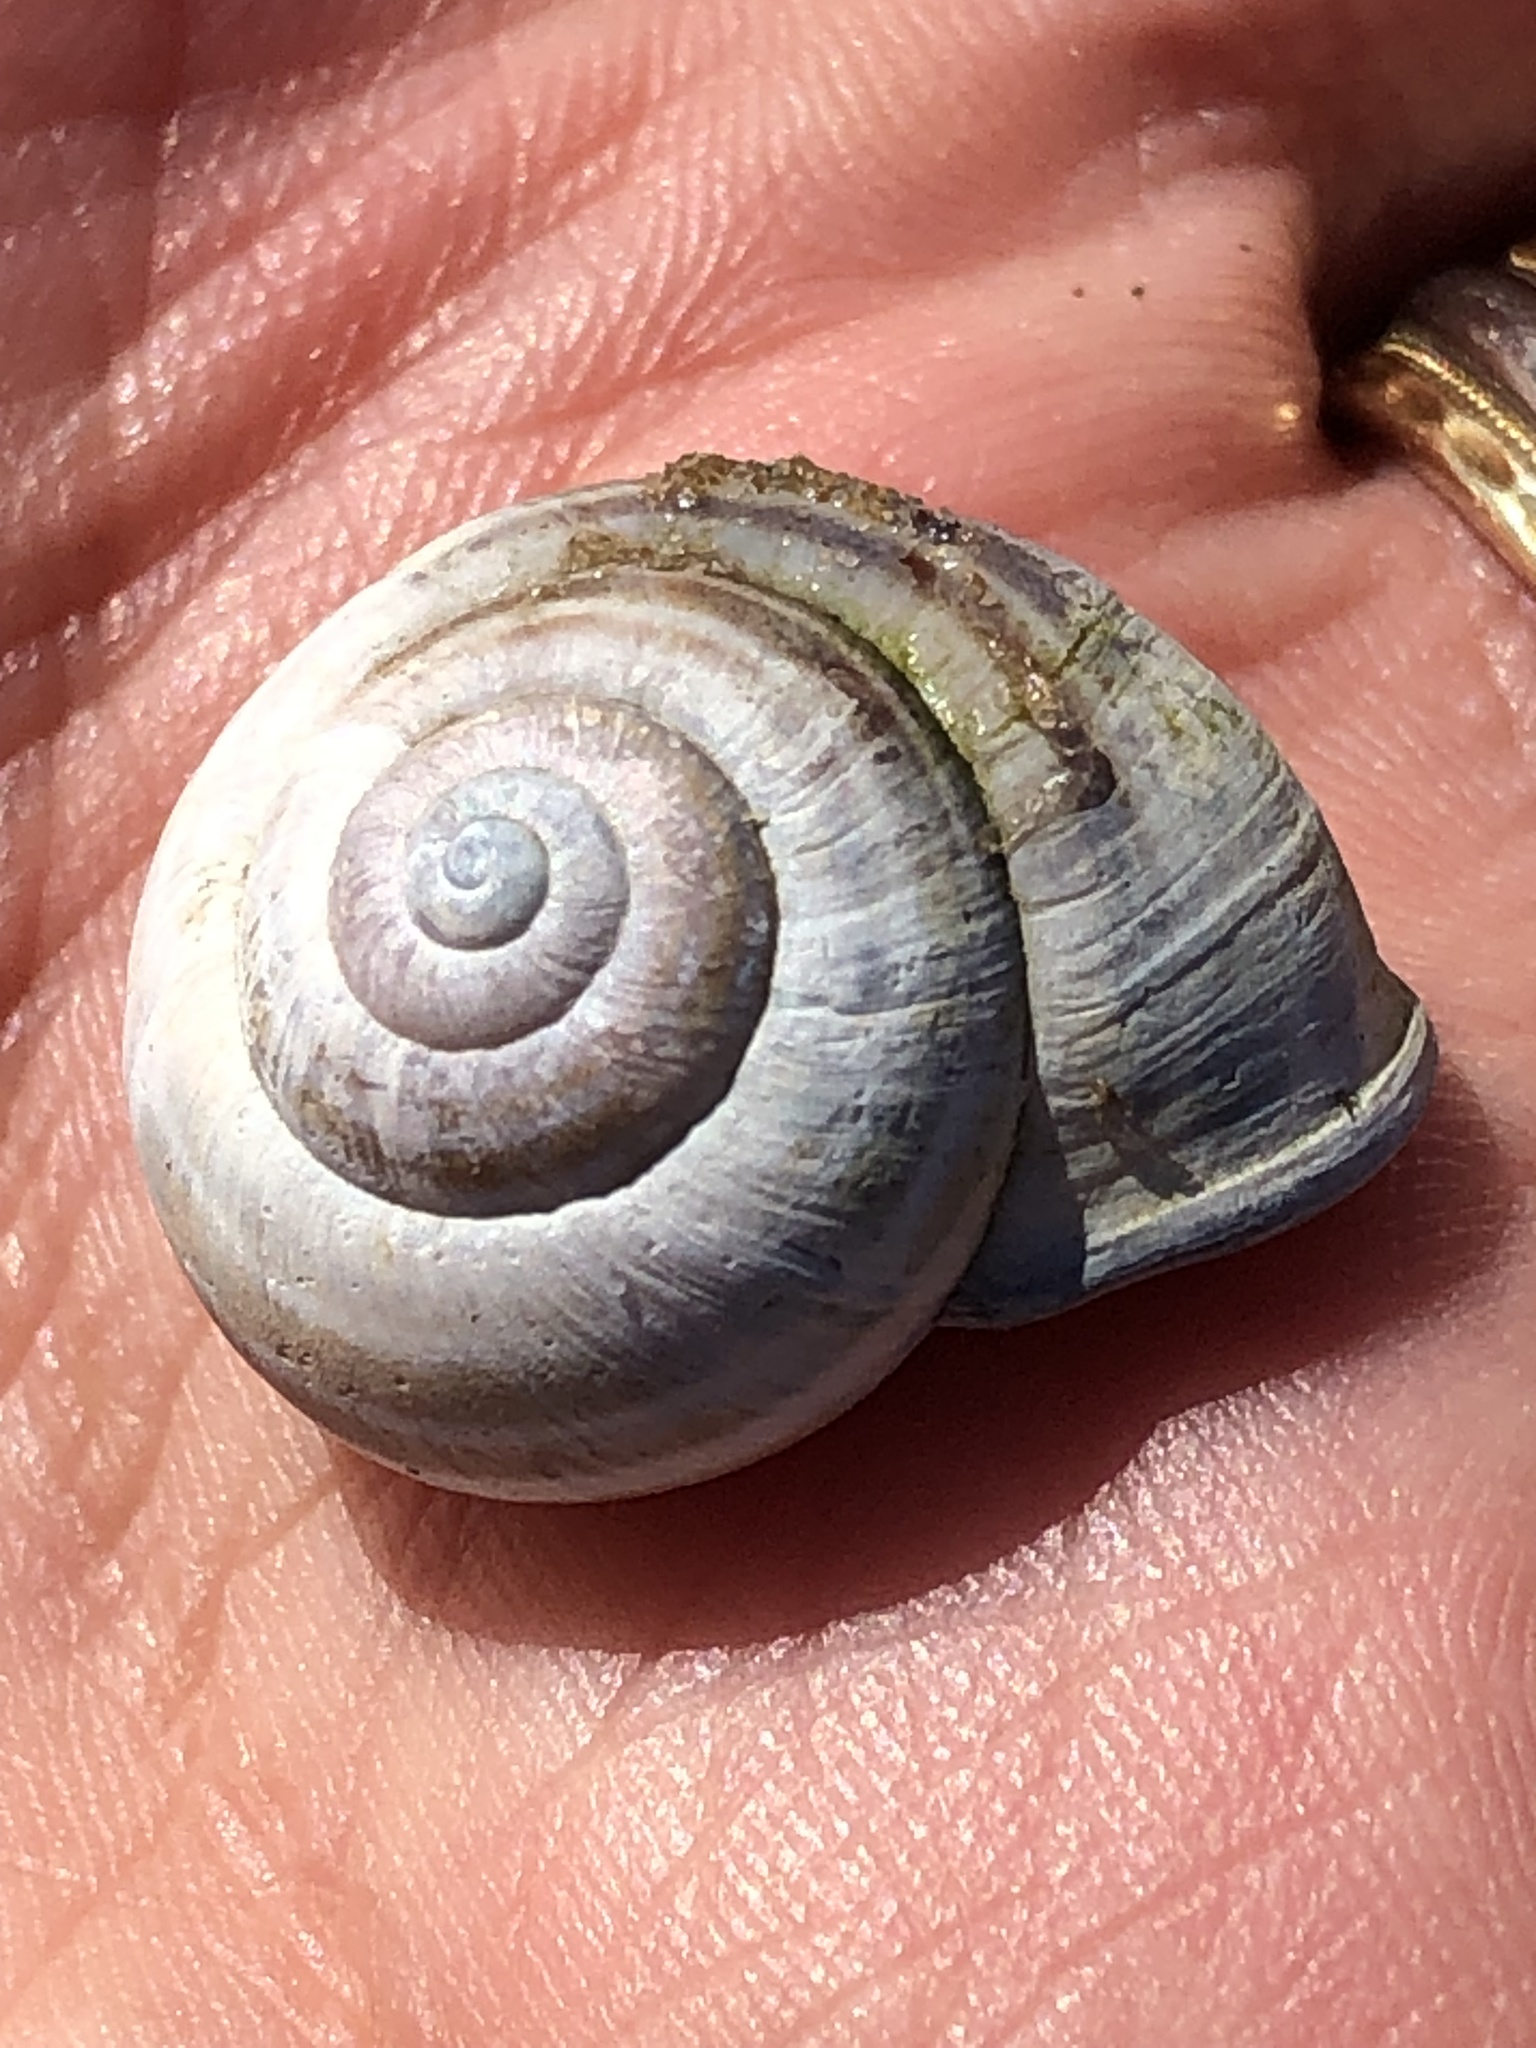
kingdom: Animalia
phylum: Mollusca
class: Gastropoda
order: Stylommatophora
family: Helicidae
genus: Cepaea
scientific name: Cepaea nemoralis
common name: Grovesnail
